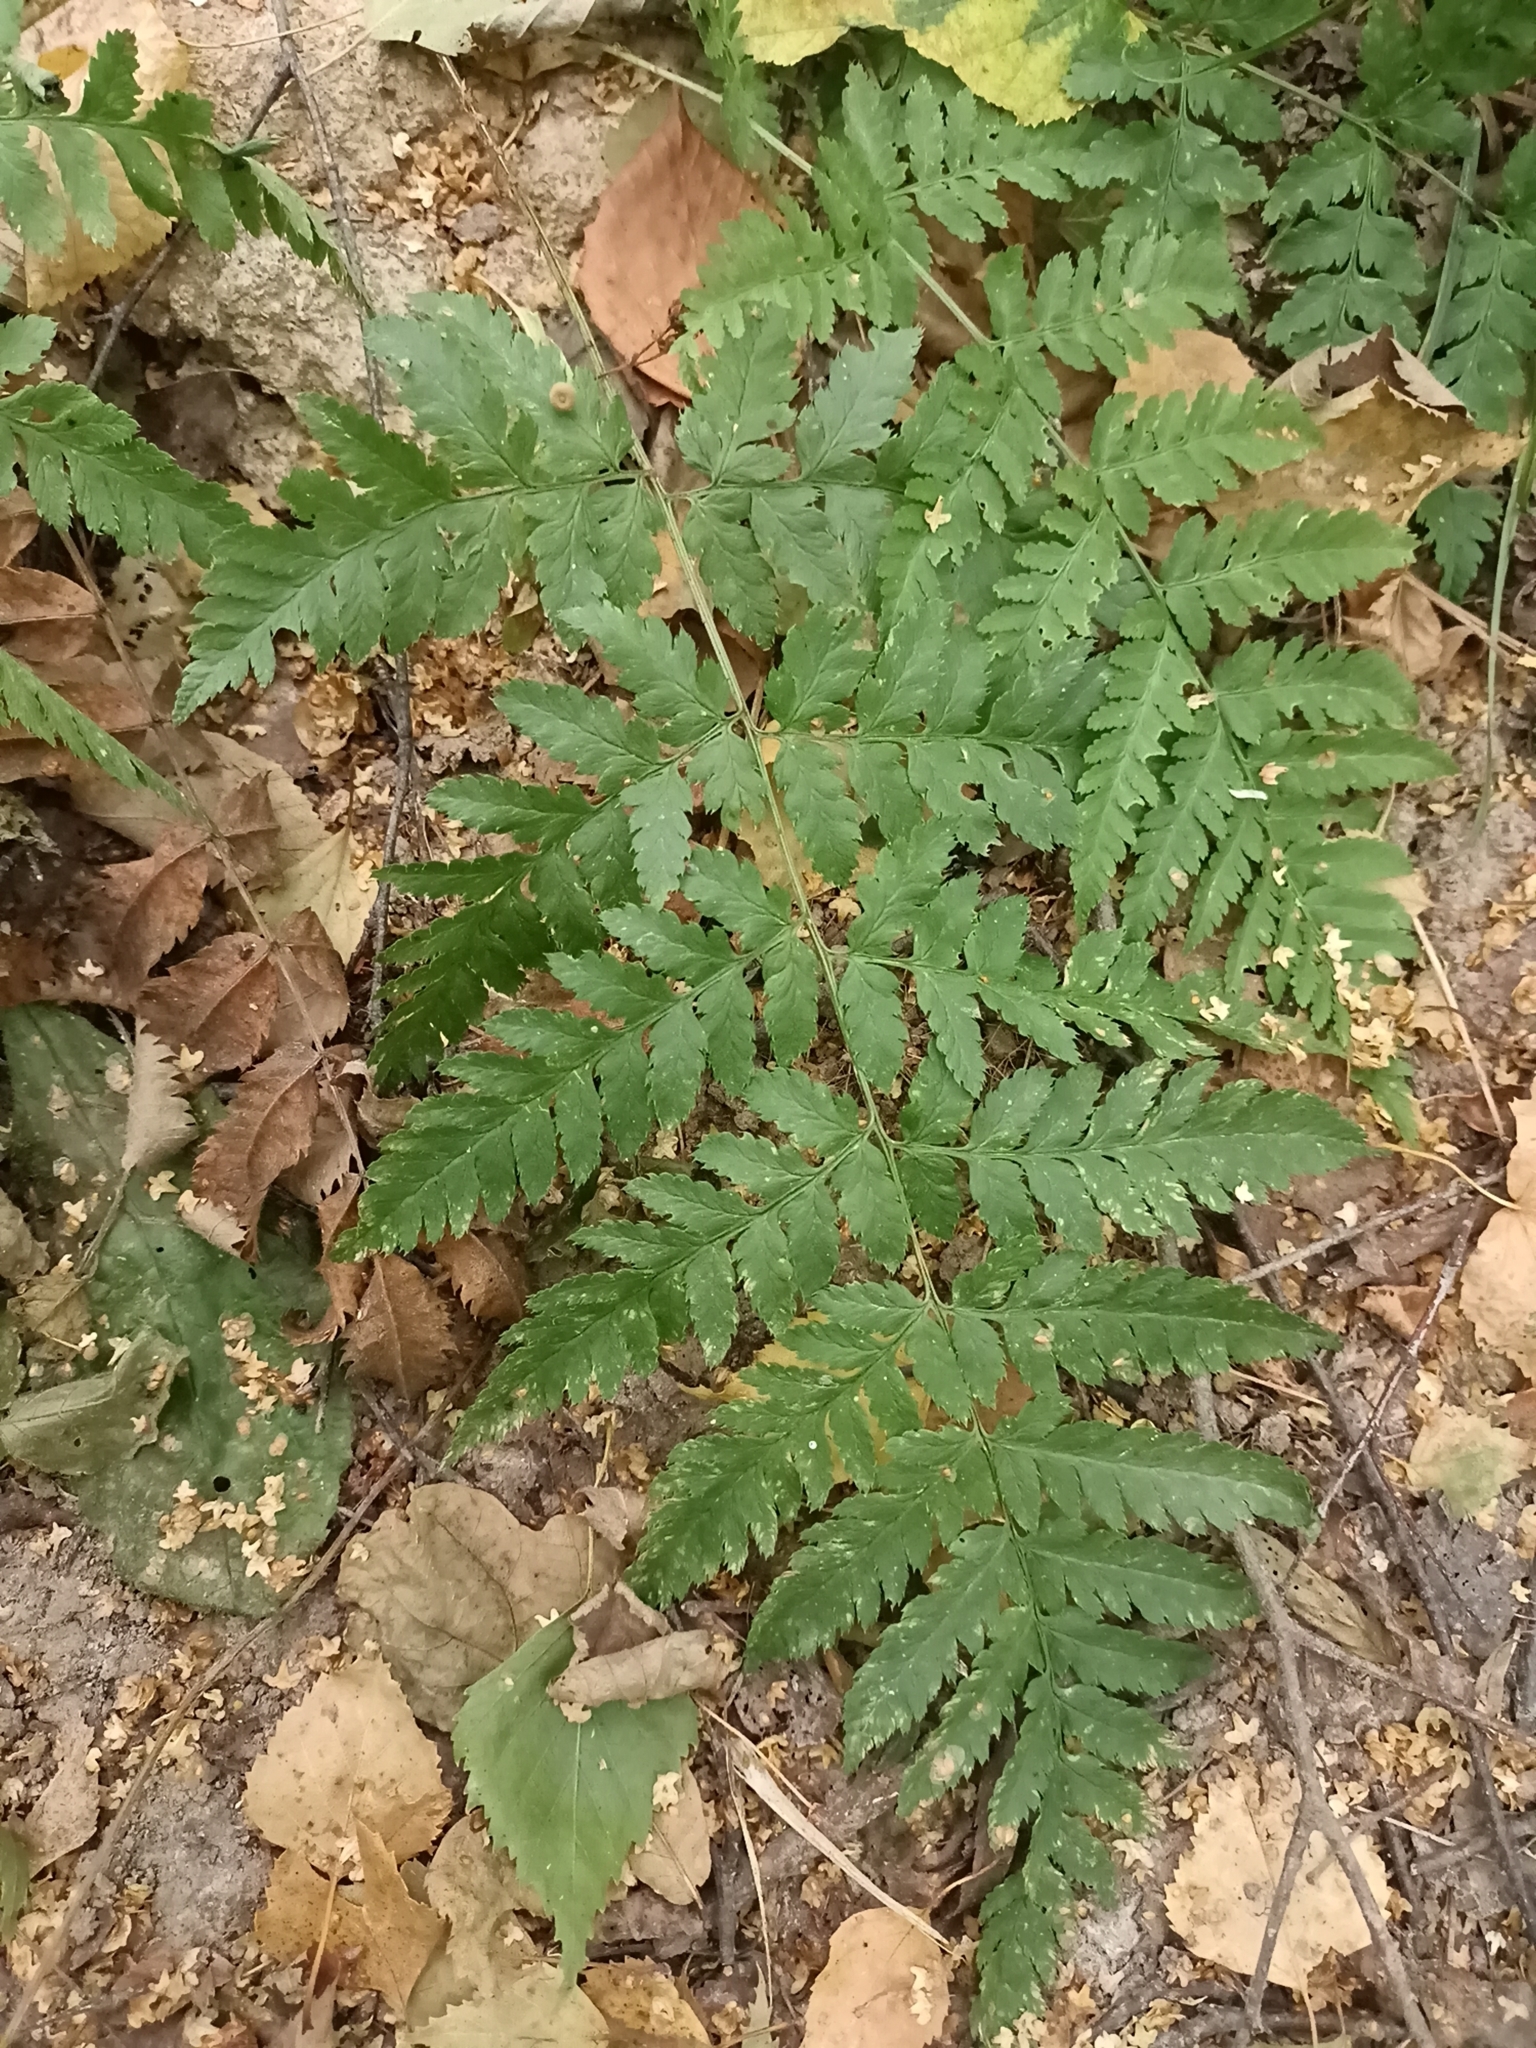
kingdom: Plantae
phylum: Tracheophyta
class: Polypodiopsida
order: Polypodiales
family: Dryopteridaceae
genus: Dryopteris
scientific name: Dryopteris carthusiana
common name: Narrow buckler-fern
